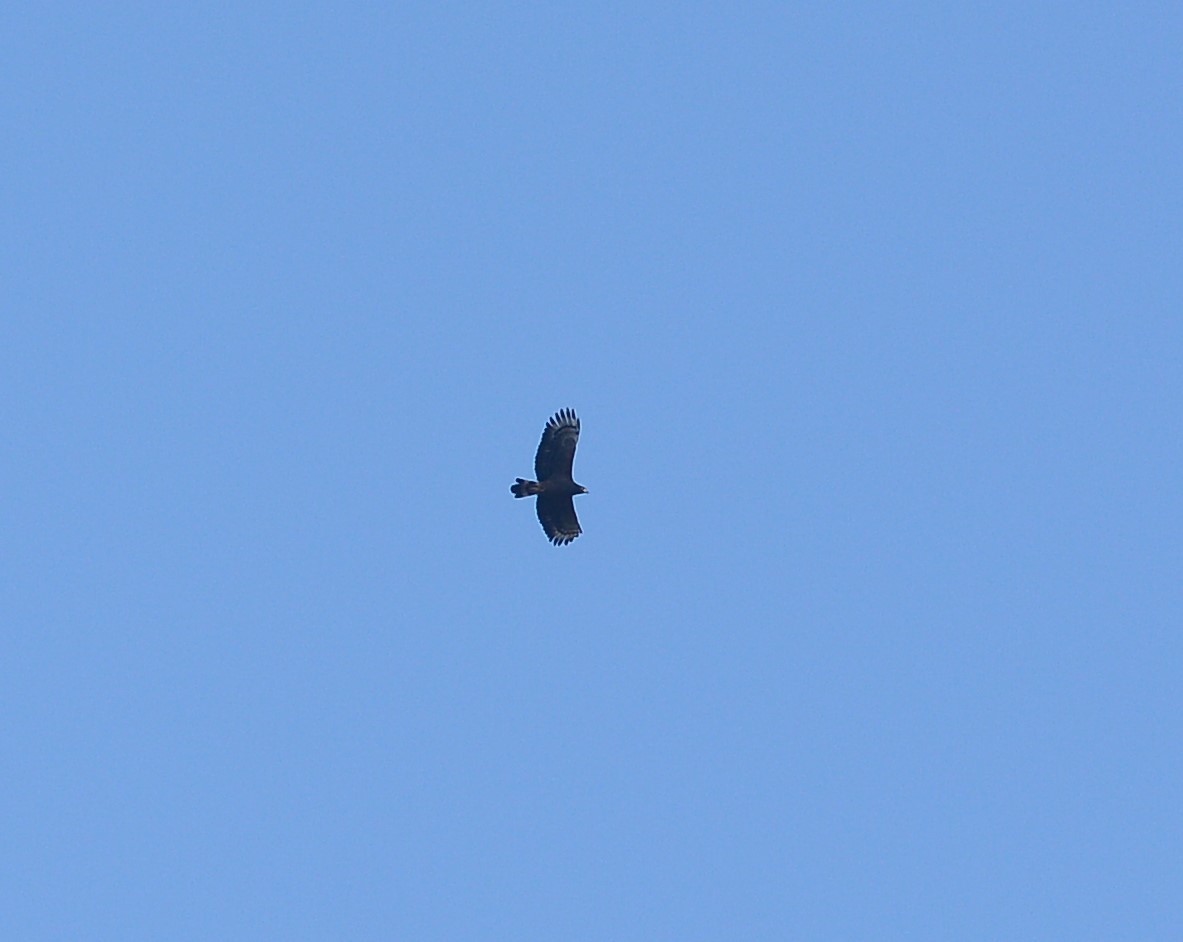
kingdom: Animalia
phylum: Chordata
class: Aves
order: Accipitriformes
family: Accipitridae
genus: Spilornis
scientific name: Spilornis cheela
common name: Crested serpent eagle
